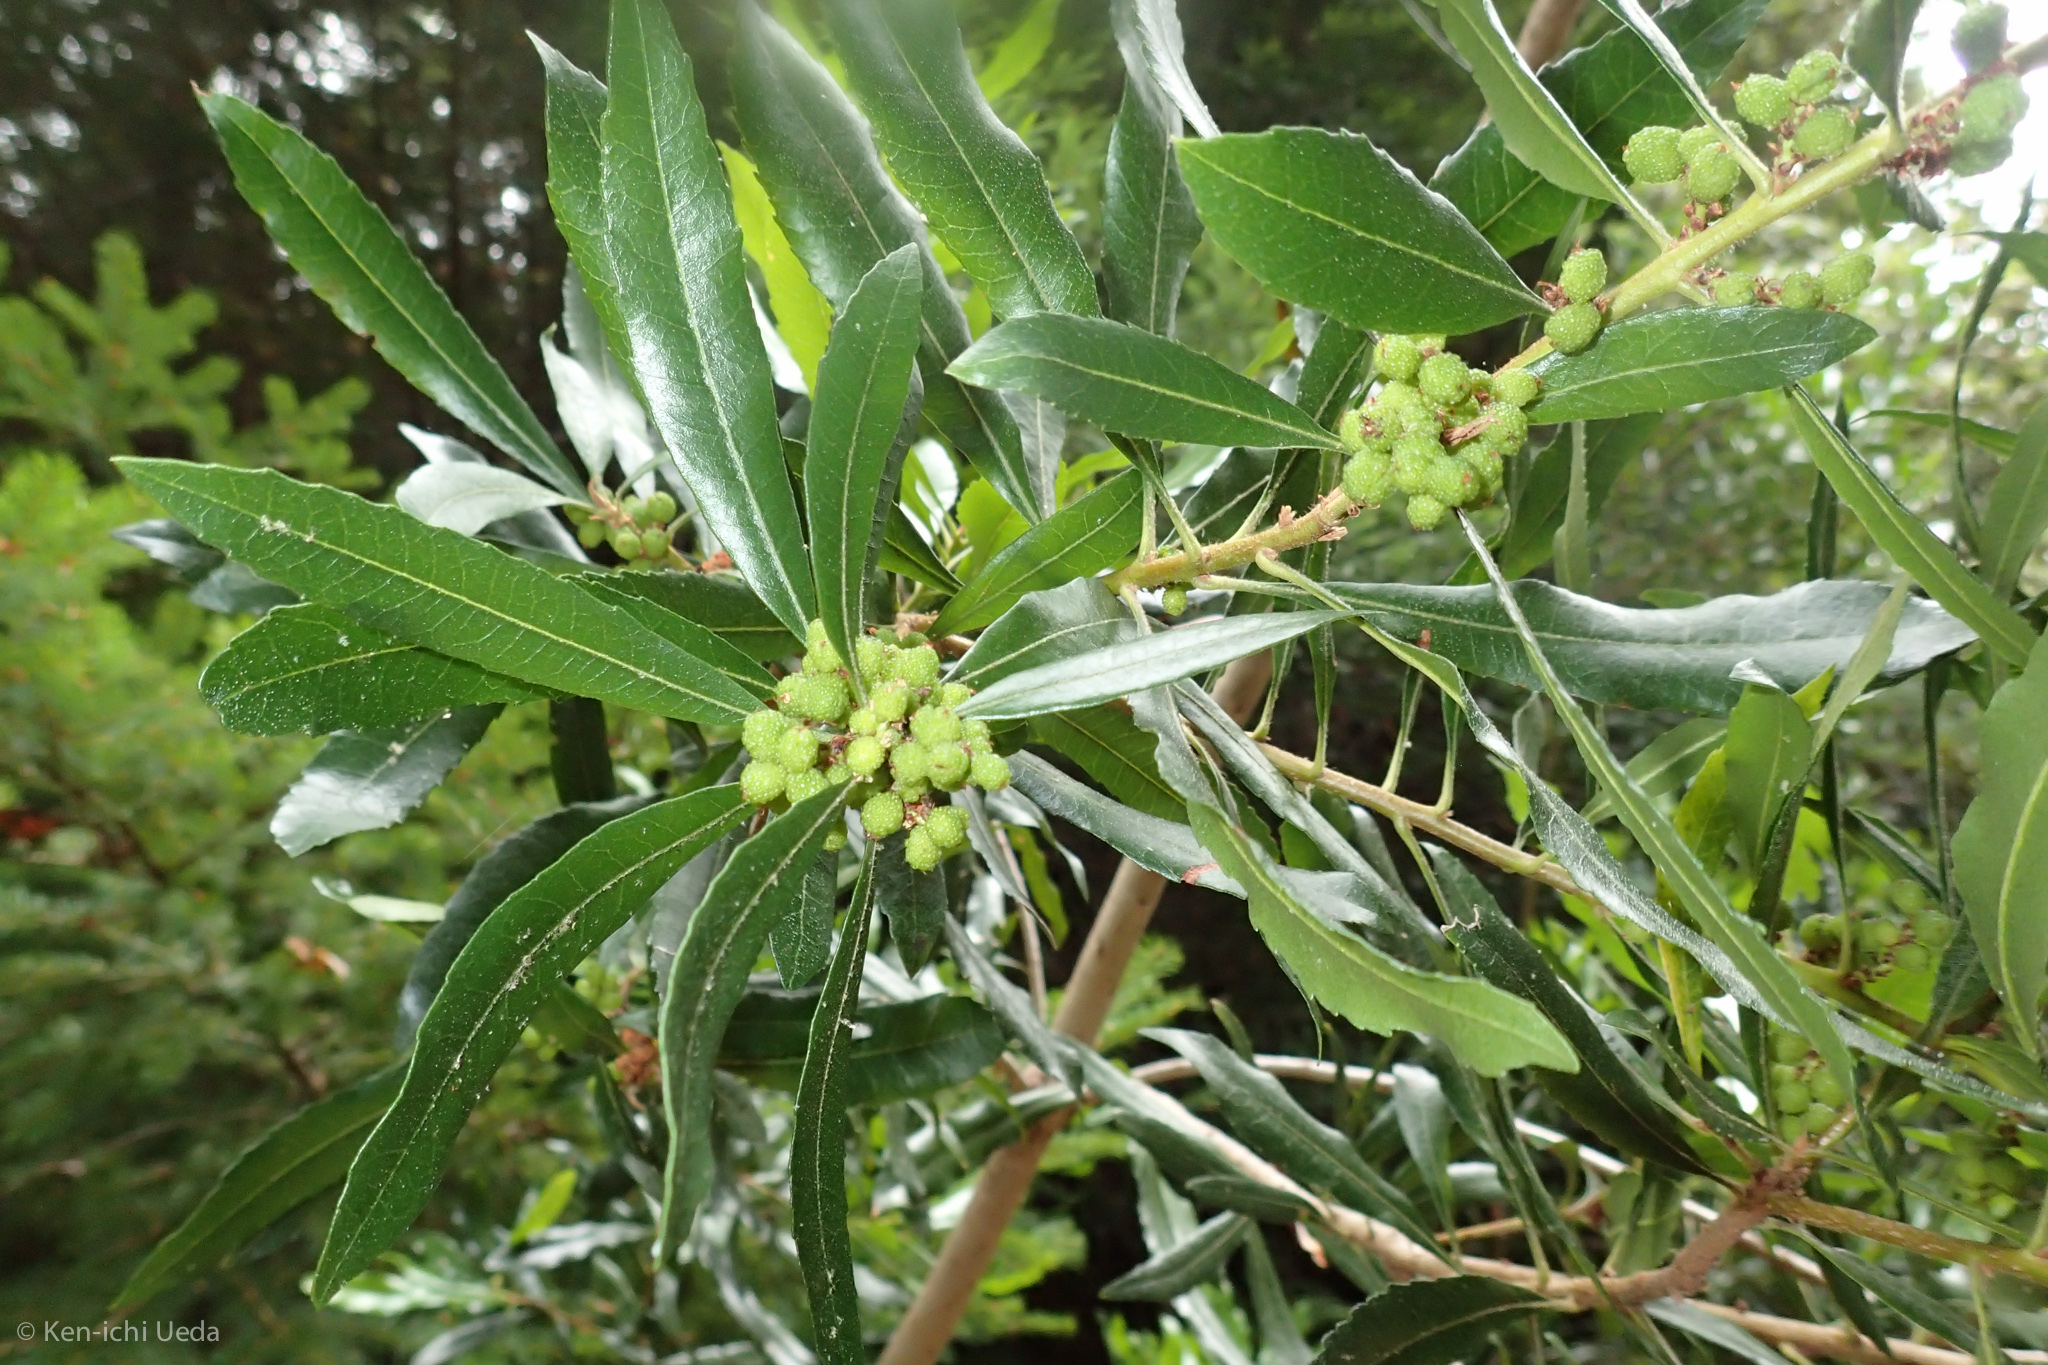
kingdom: Plantae
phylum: Tracheophyta
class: Magnoliopsida
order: Fagales
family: Myricaceae
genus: Morella
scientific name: Morella californica
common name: California wax-myrtle
